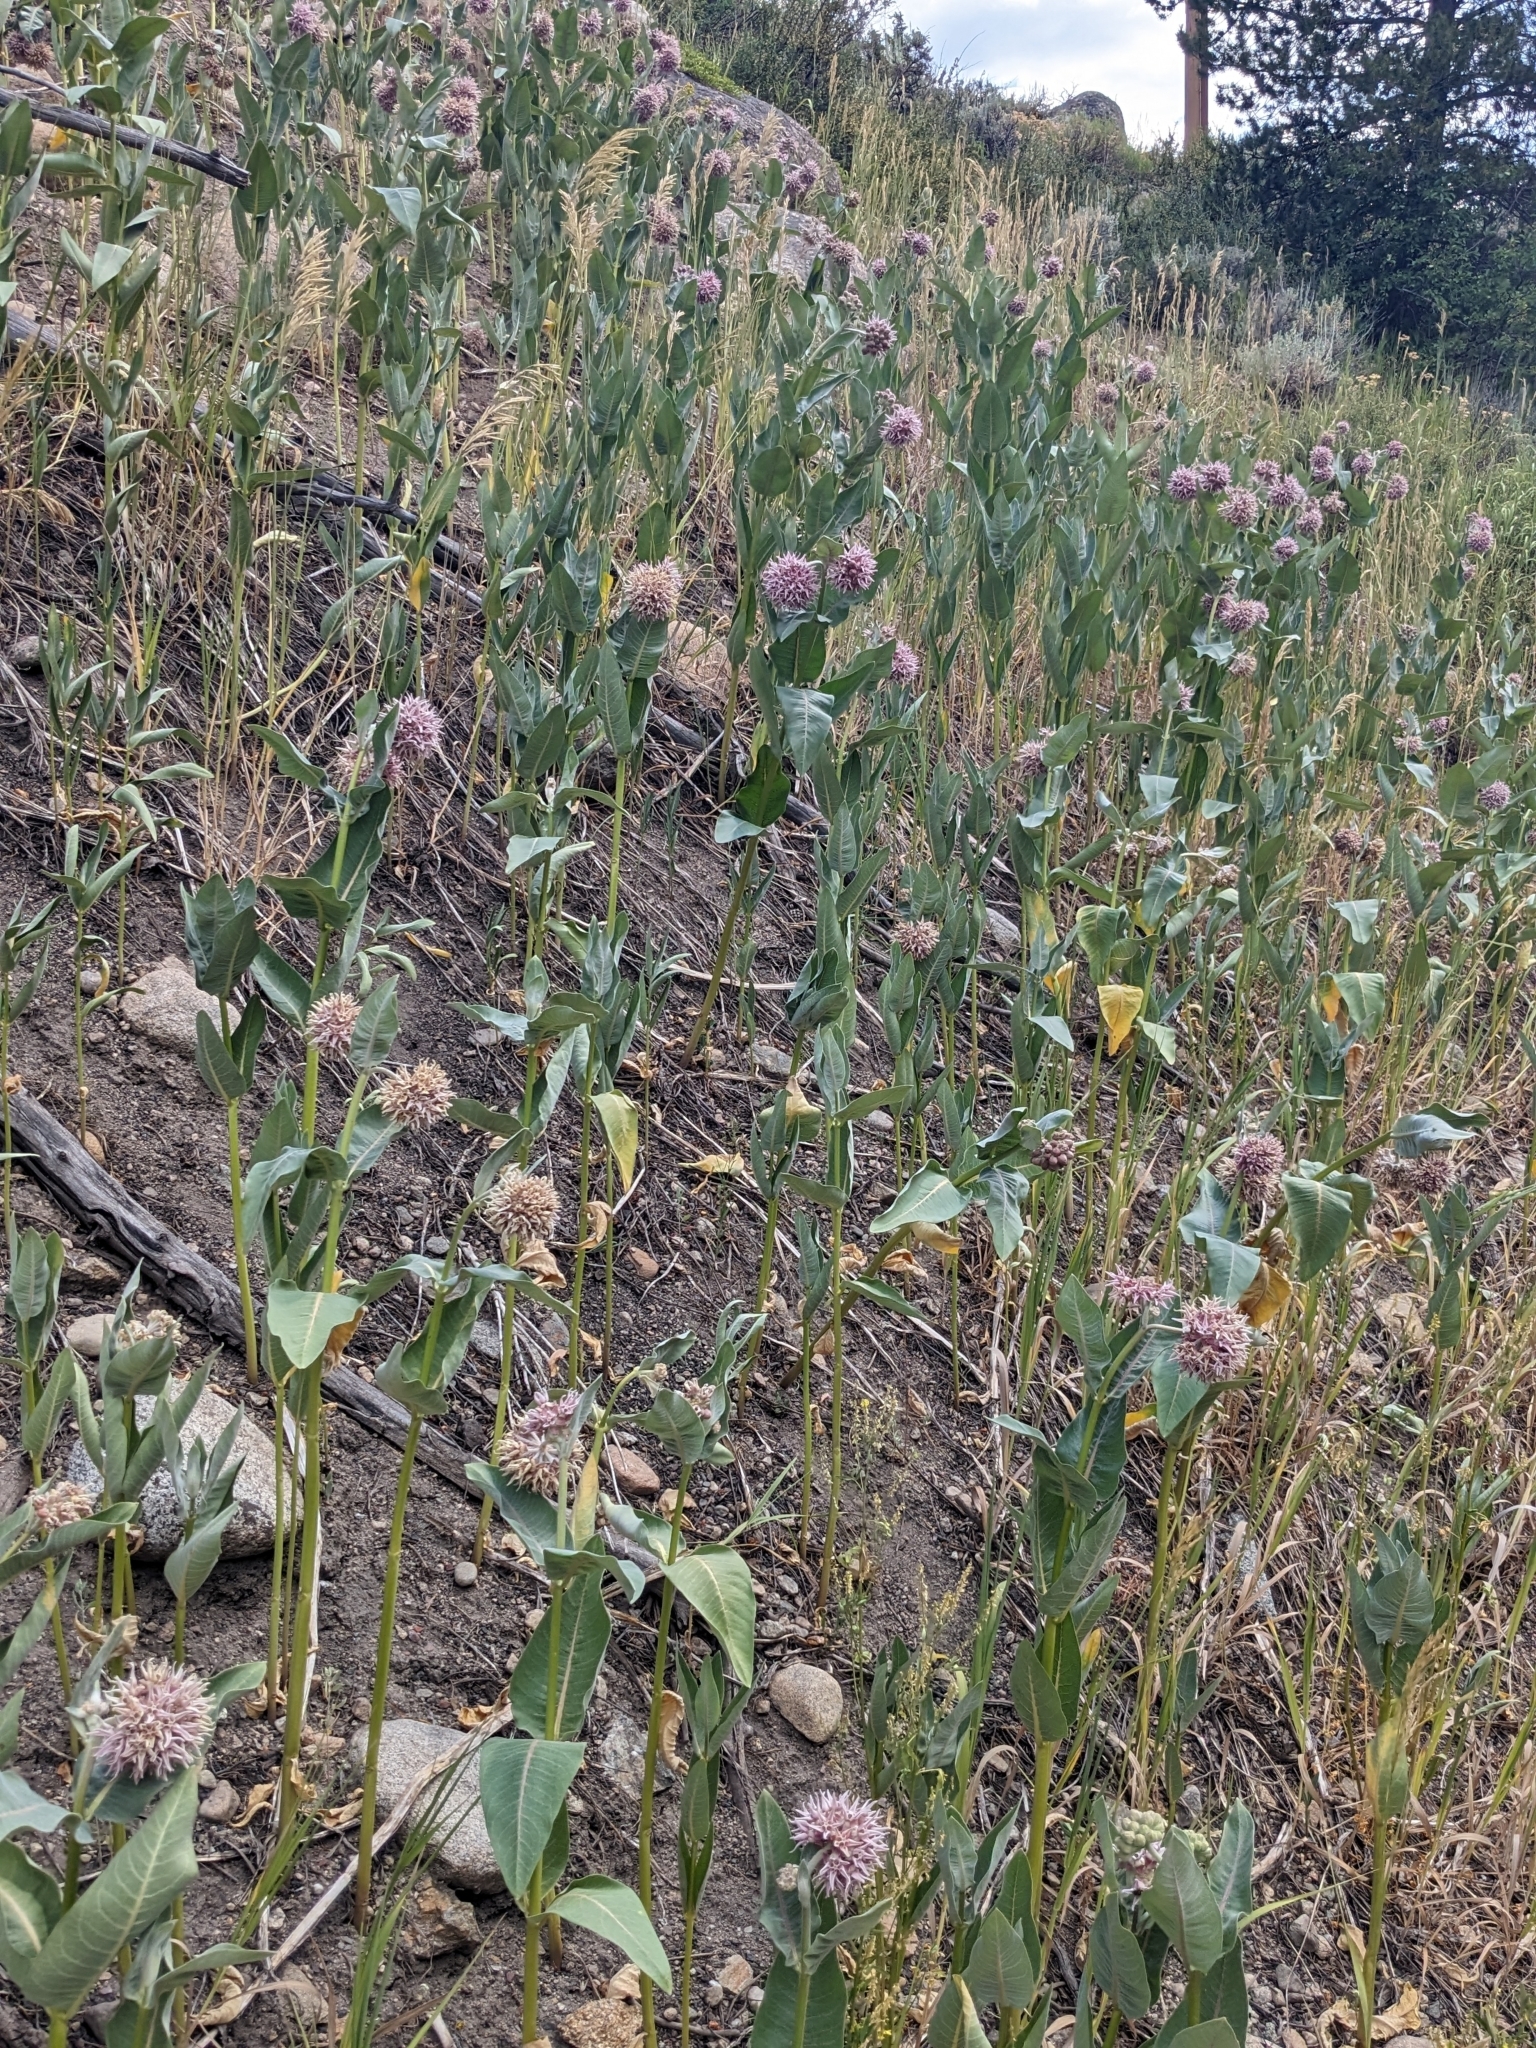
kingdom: Plantae
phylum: Tracheophyta
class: Magnoliopsida
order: Gentianales
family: Apocynaceae
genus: Asclepias
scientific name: Asclepias speciosa
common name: Showy milkweed
